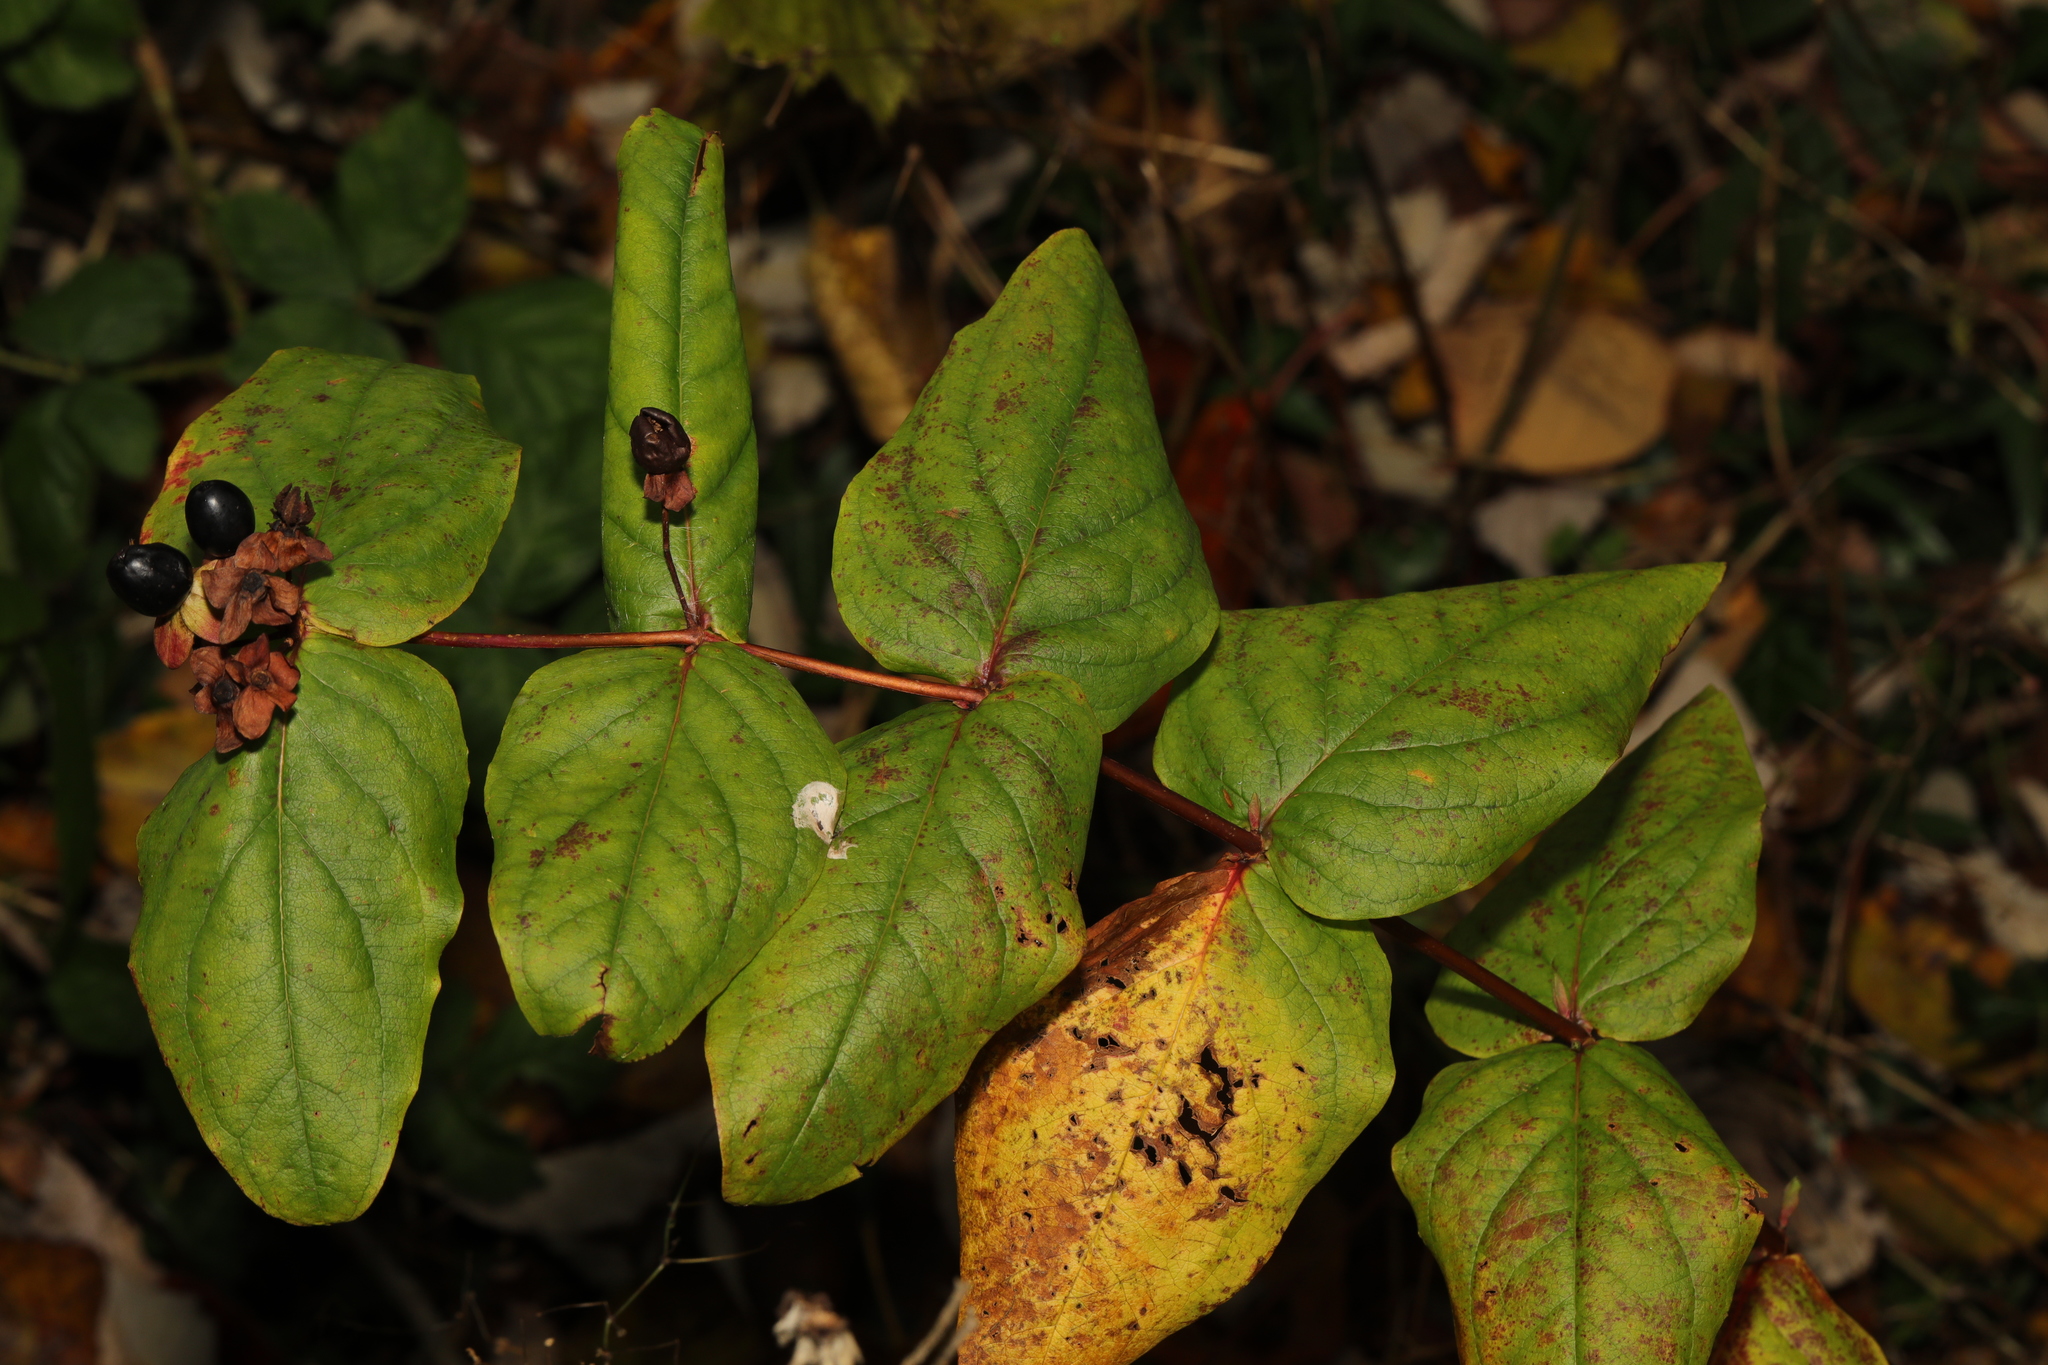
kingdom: Plantae
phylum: Tracheophyta
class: Magnoliopsida
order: Malpighiales
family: Hypericaceae
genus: Hypericum
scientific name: Hypericum androsaemum
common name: Sweet-amber
